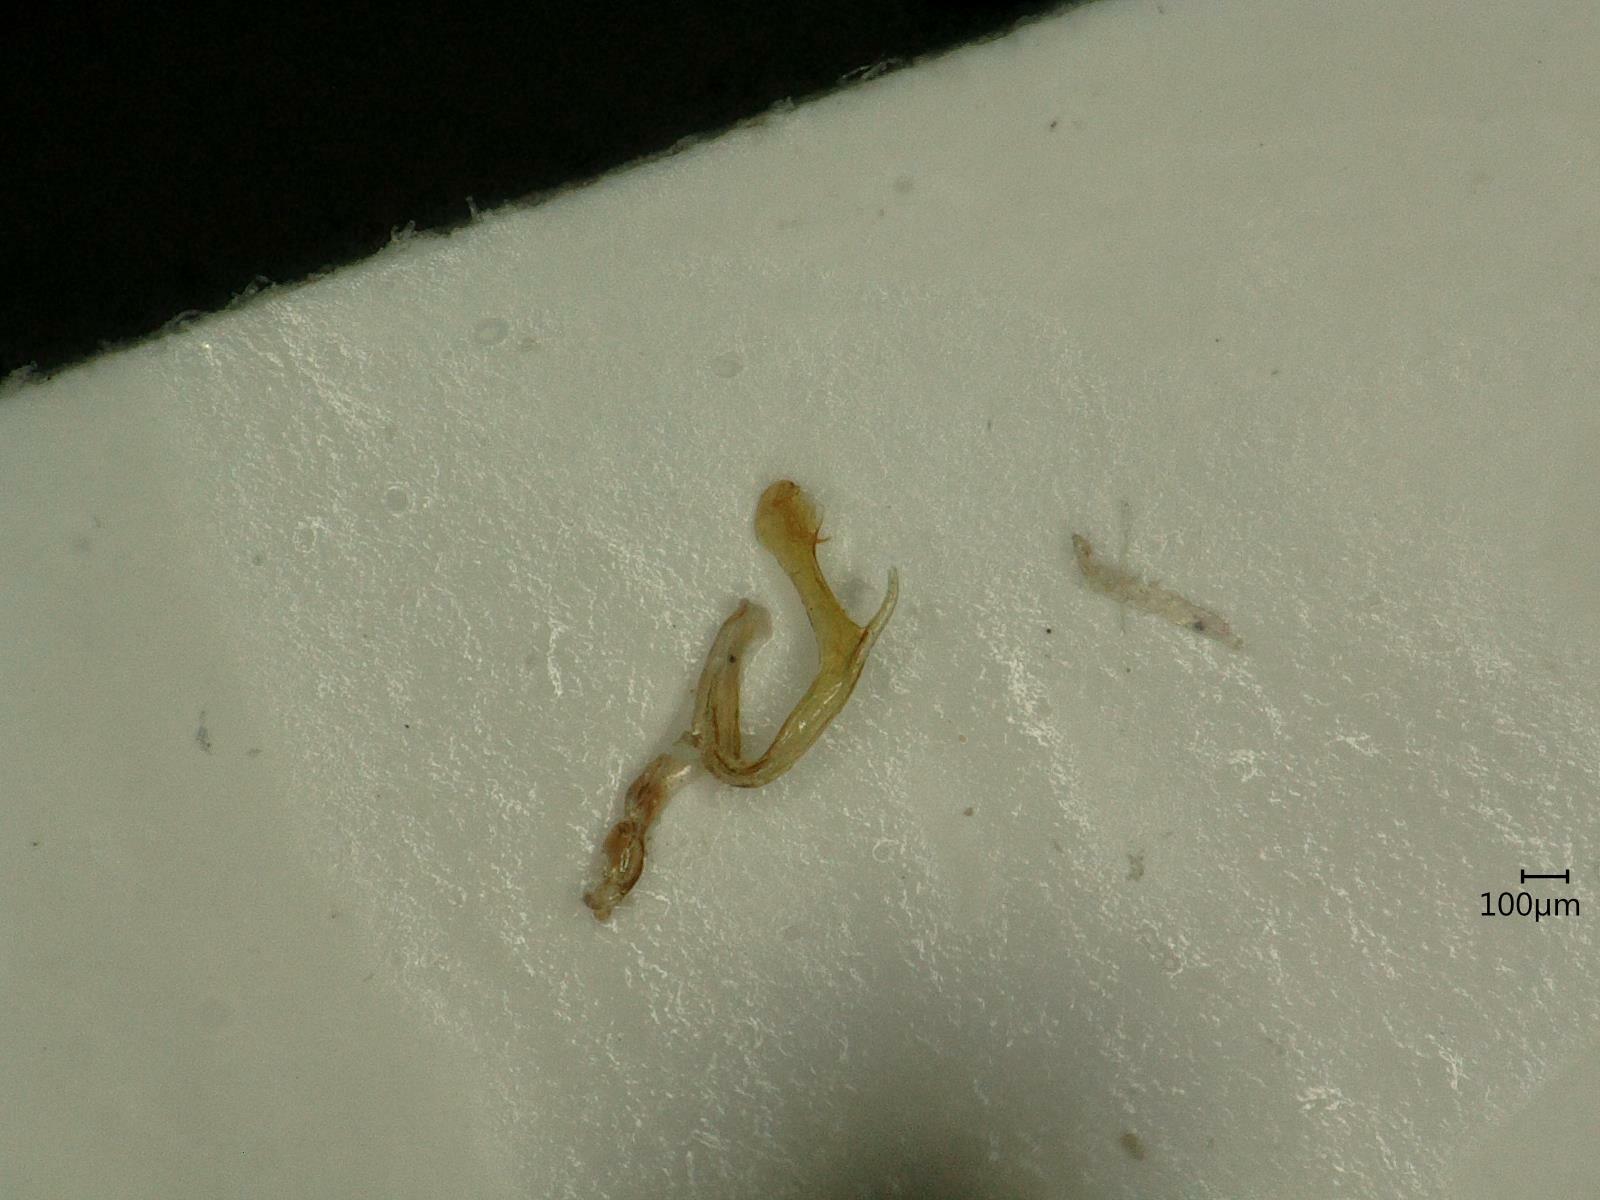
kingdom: Animalia
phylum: Arthropoda
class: Insecta
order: Hemiptera
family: Cicadellidae
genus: Thamnotettix
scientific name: Thamnotettix confinis
